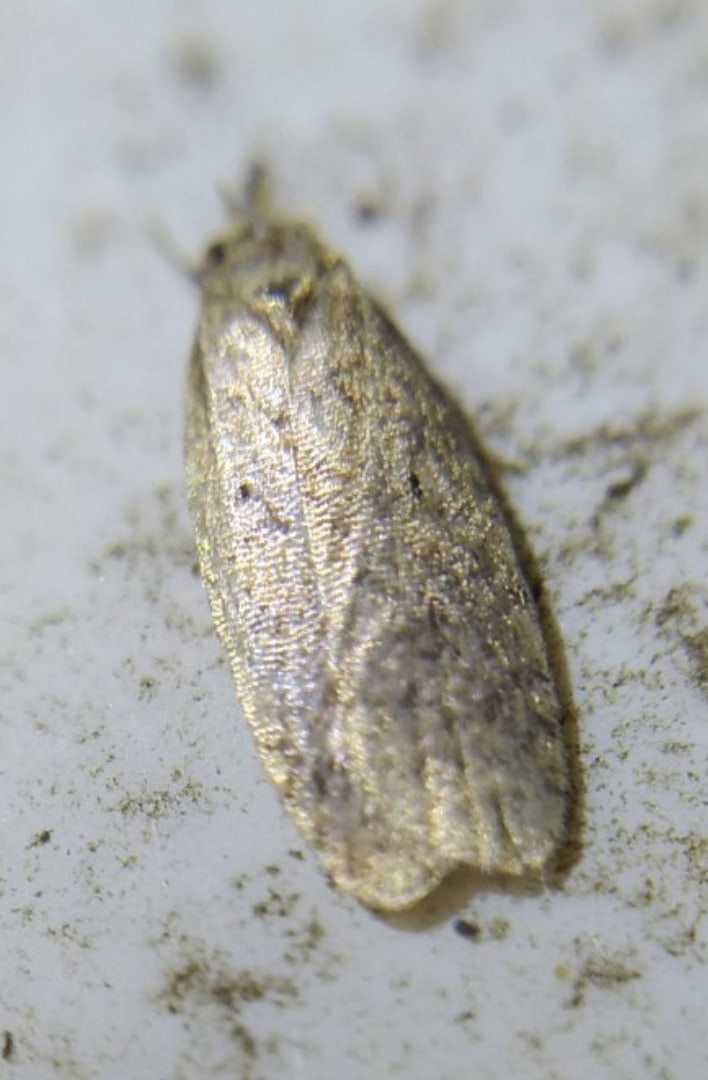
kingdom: Animalia
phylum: Arthropoda
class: Insecta
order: Lepidoptera
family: Oecophoridae
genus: Luquetia
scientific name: Luquetia lobella
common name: Sloe flat-body
